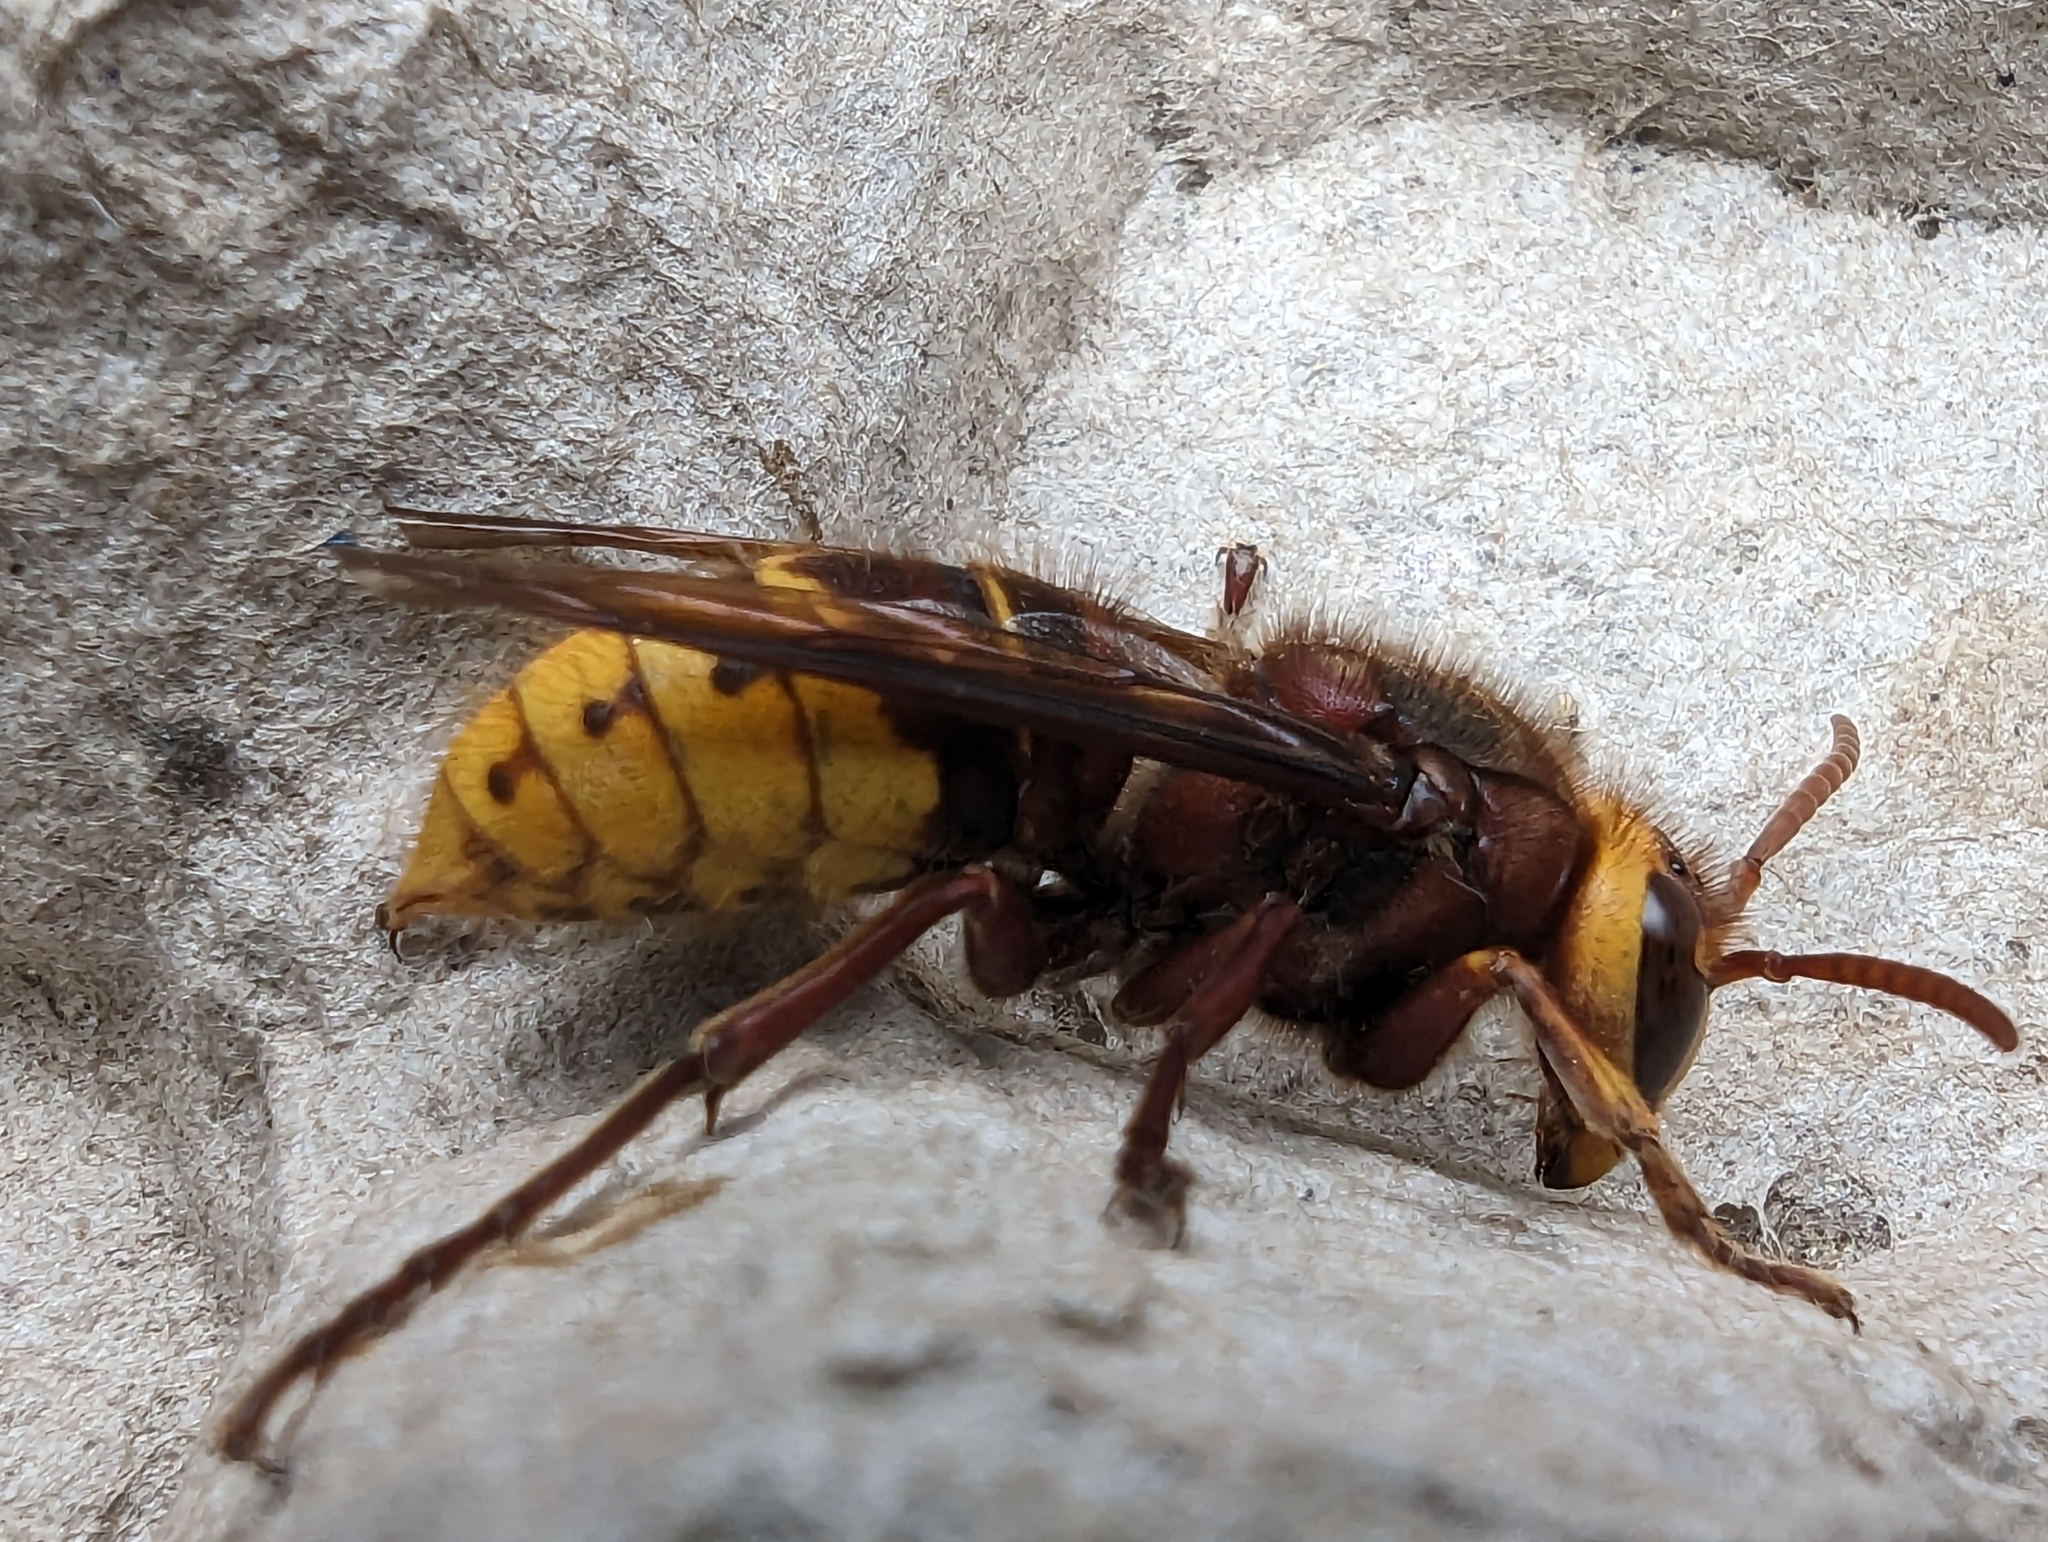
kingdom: Animalia
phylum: Arthropoda
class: Insecta
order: Hymenoptera
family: Vespidae
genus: Vespa
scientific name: Vespa crabro
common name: Hornet
